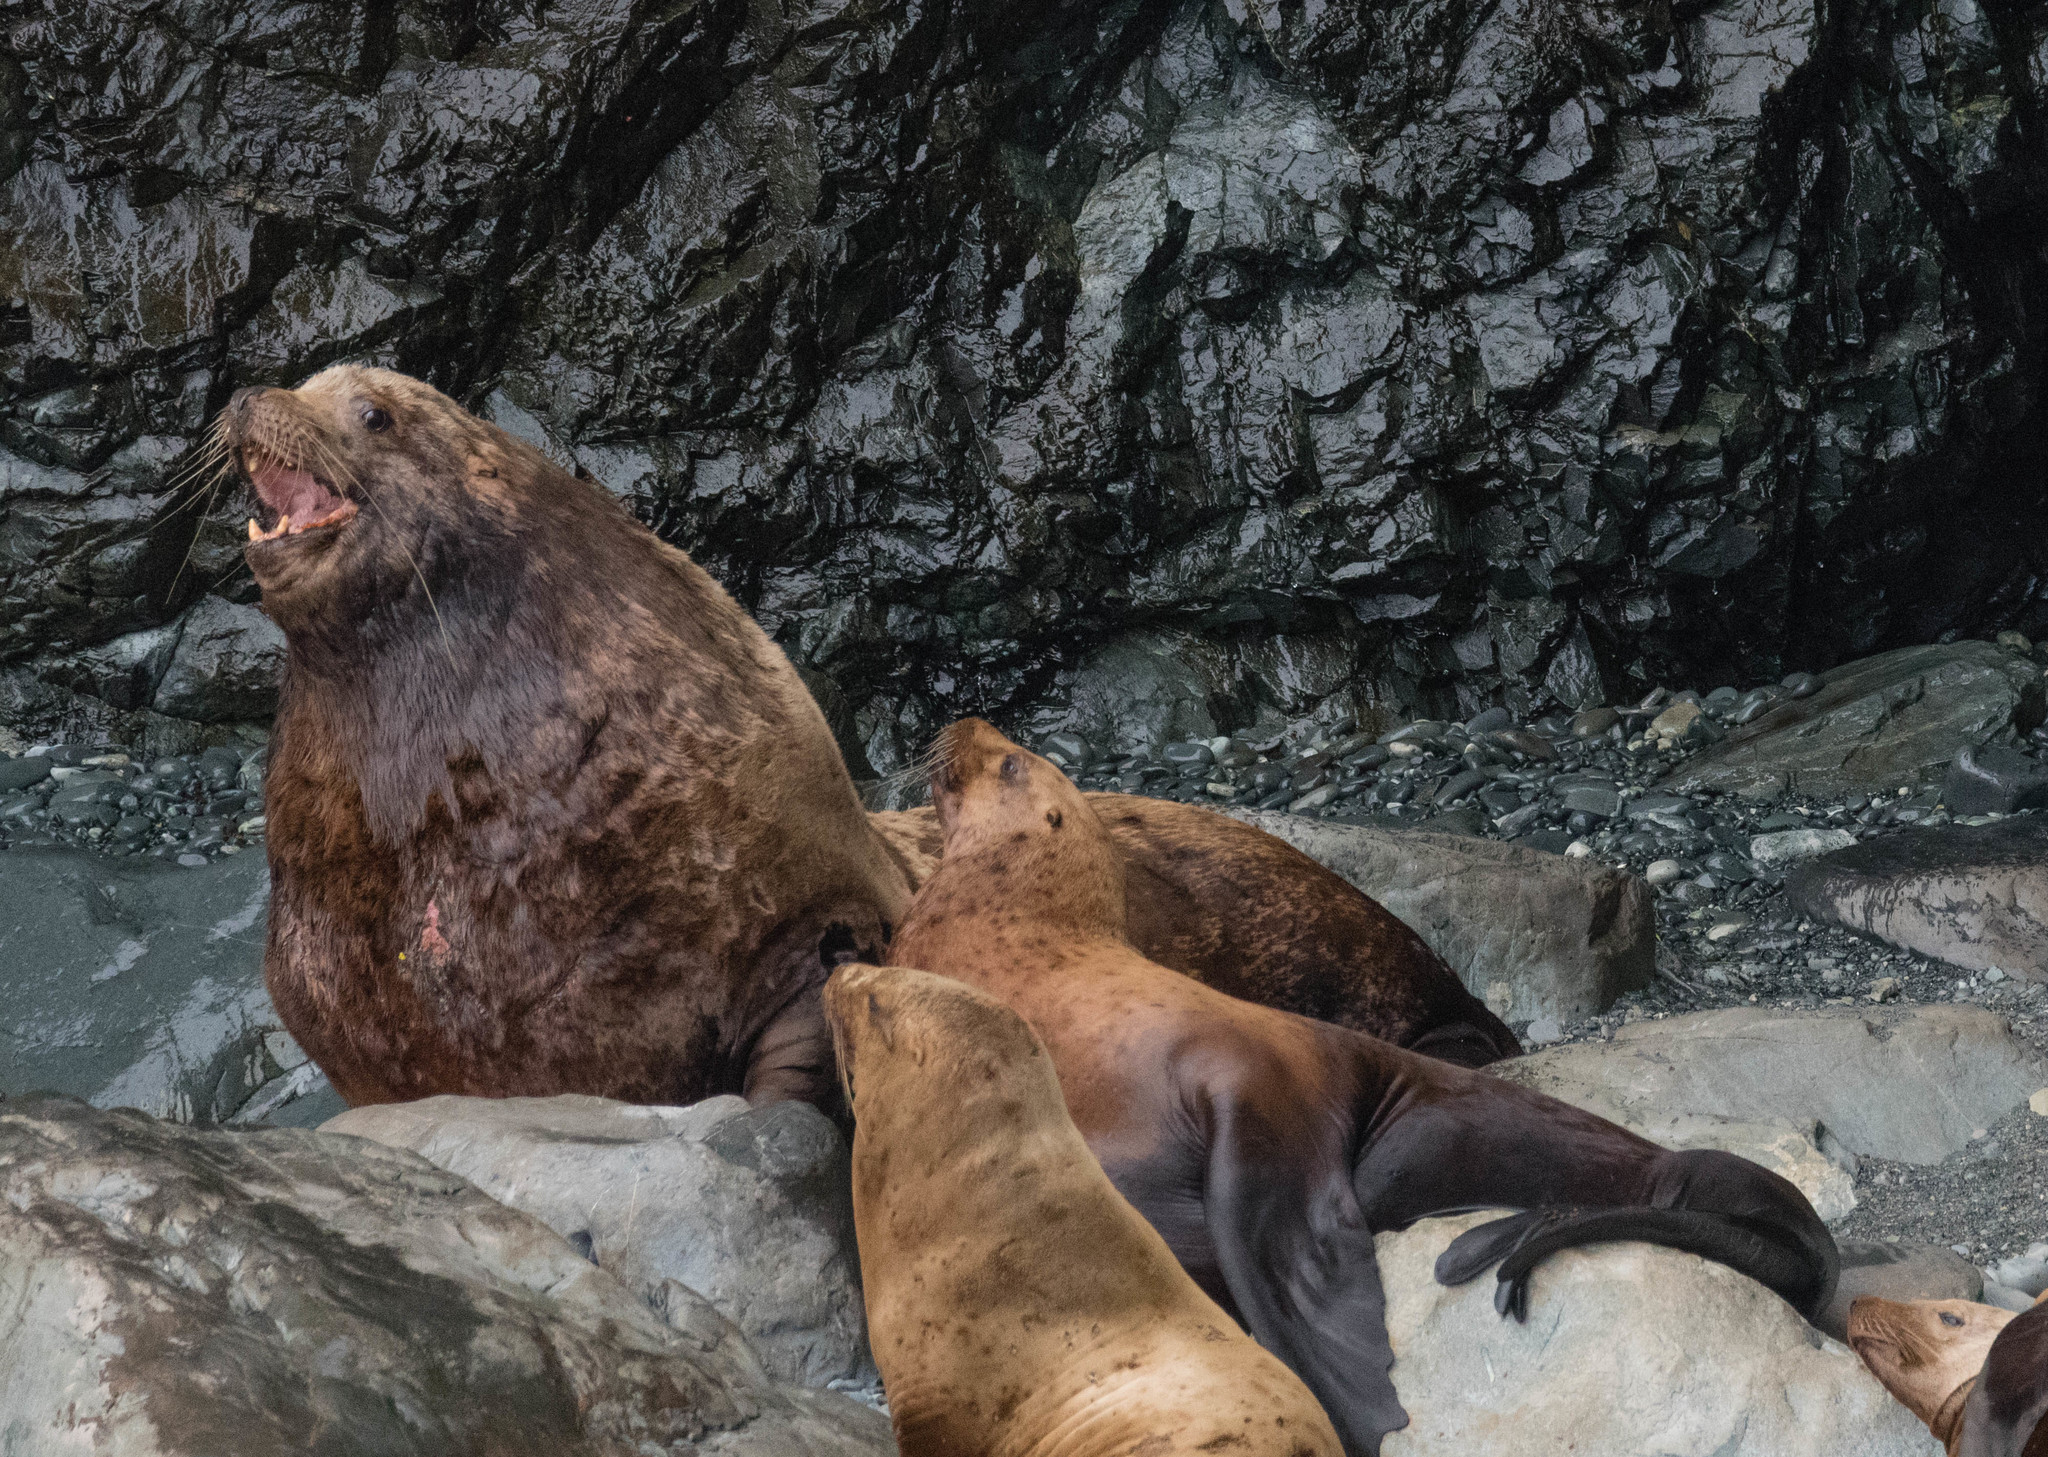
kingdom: Animalia
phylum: Chordata
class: Mammalia
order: Carnivora
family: Otariidae
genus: Eumetopias
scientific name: Eumetopias jubatus
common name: Steller sea lion
